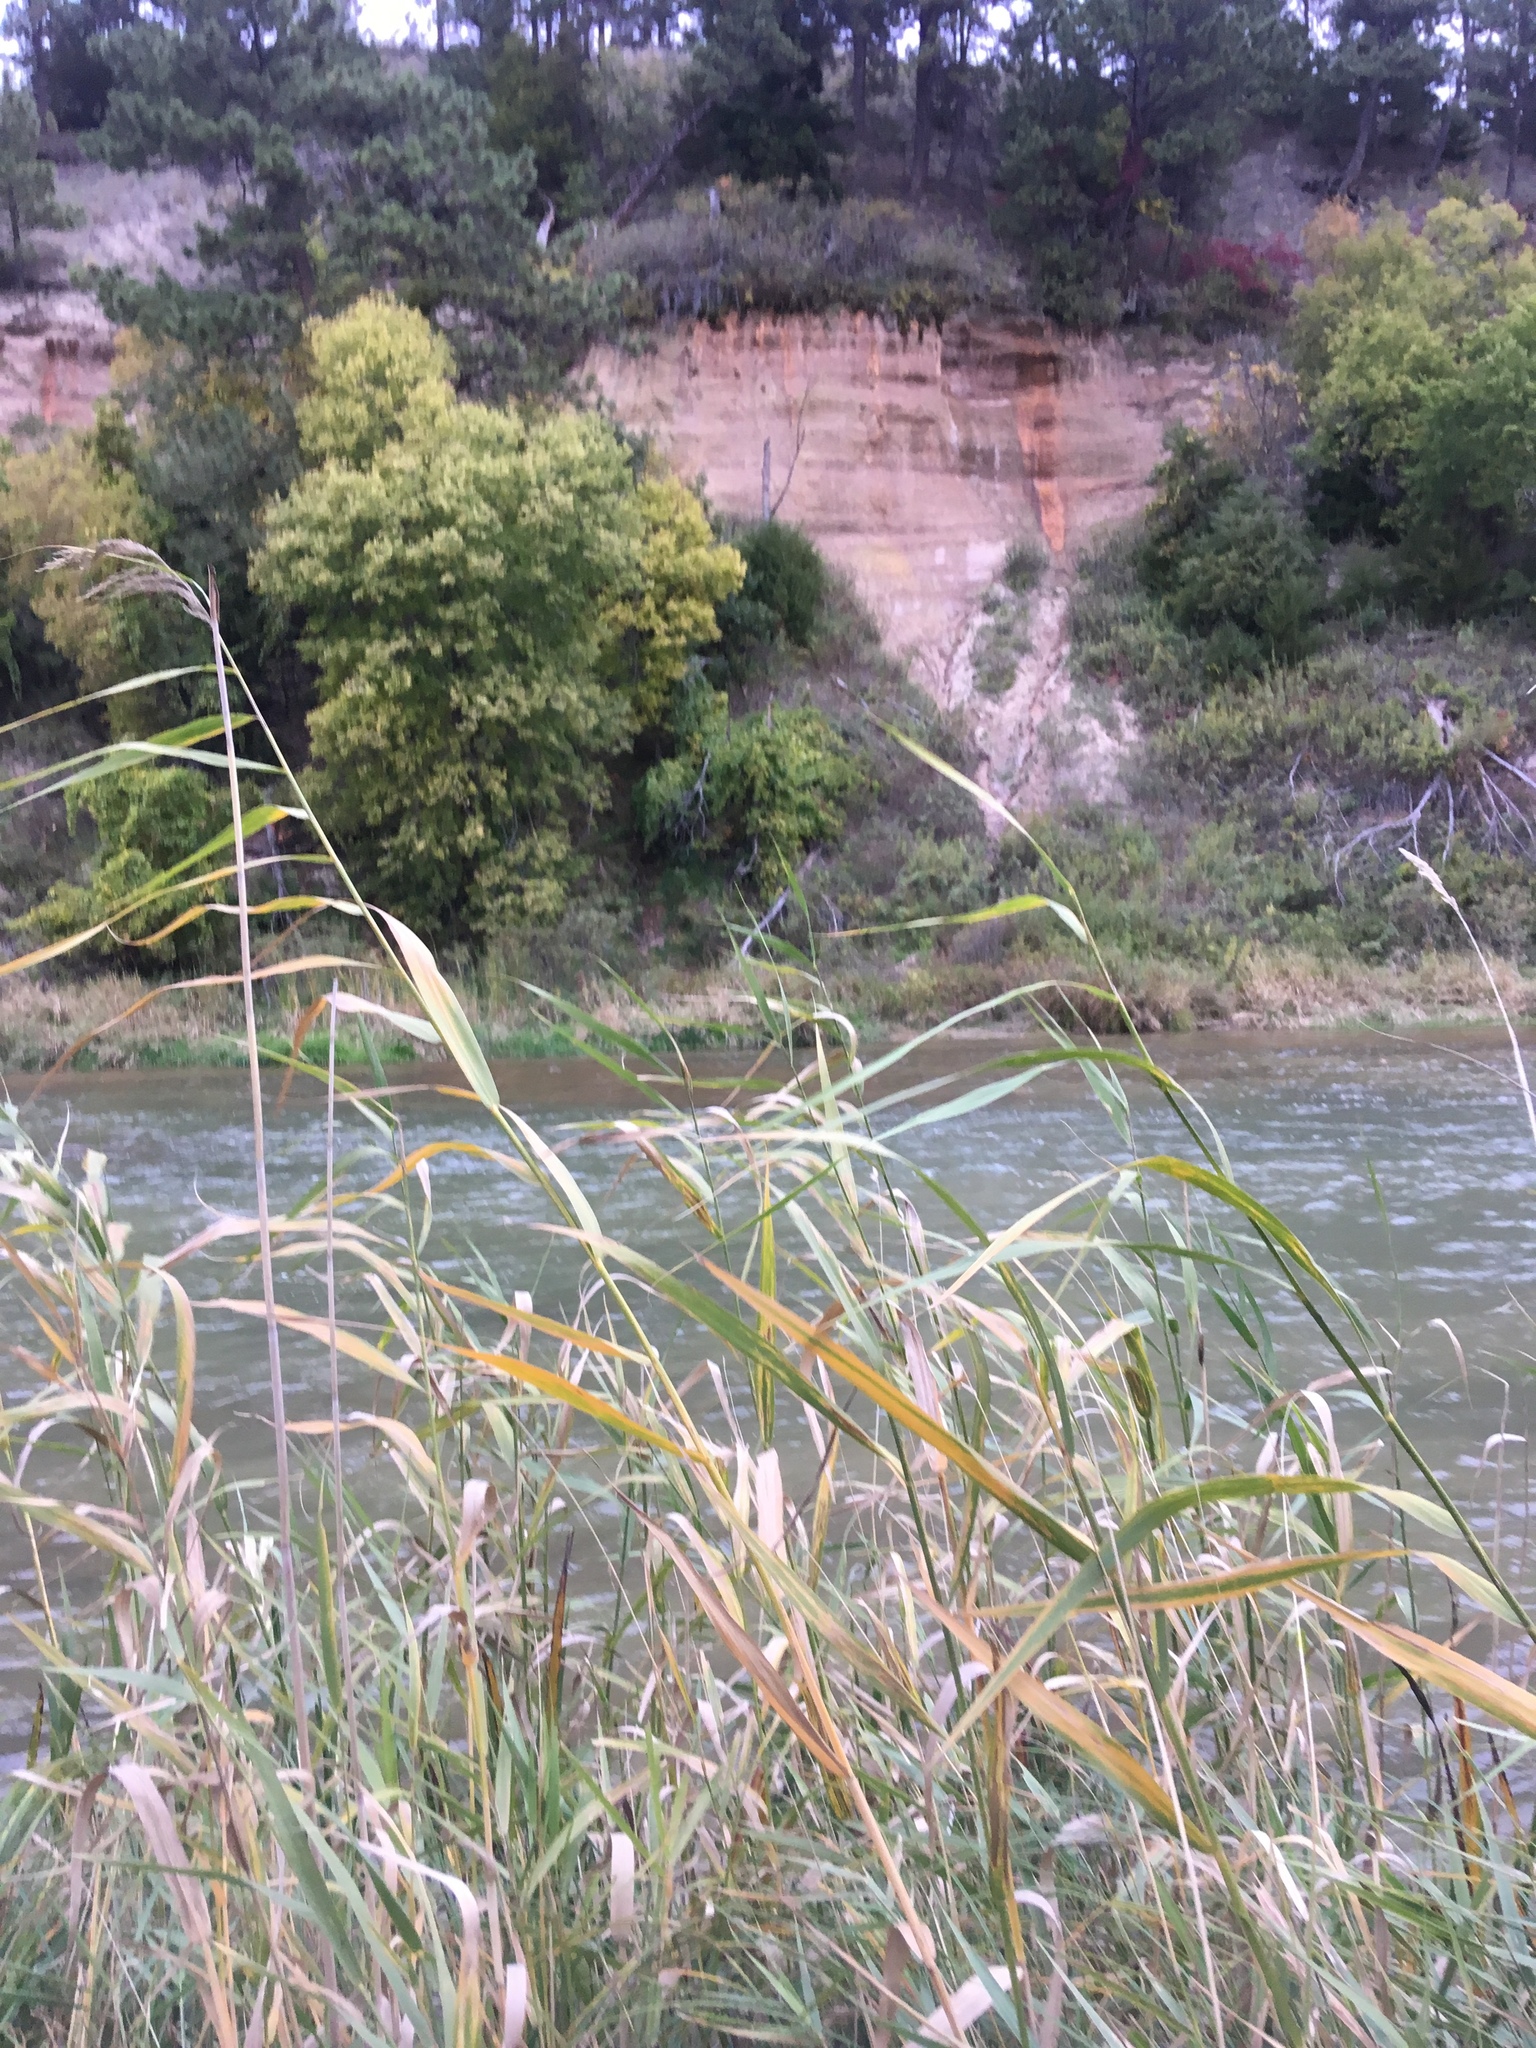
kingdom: Plantae
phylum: Tracheophyta
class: Liliopsida
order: Poales
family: Poaceae
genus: Phragmites
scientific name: Phragmites australis
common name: Common reed
